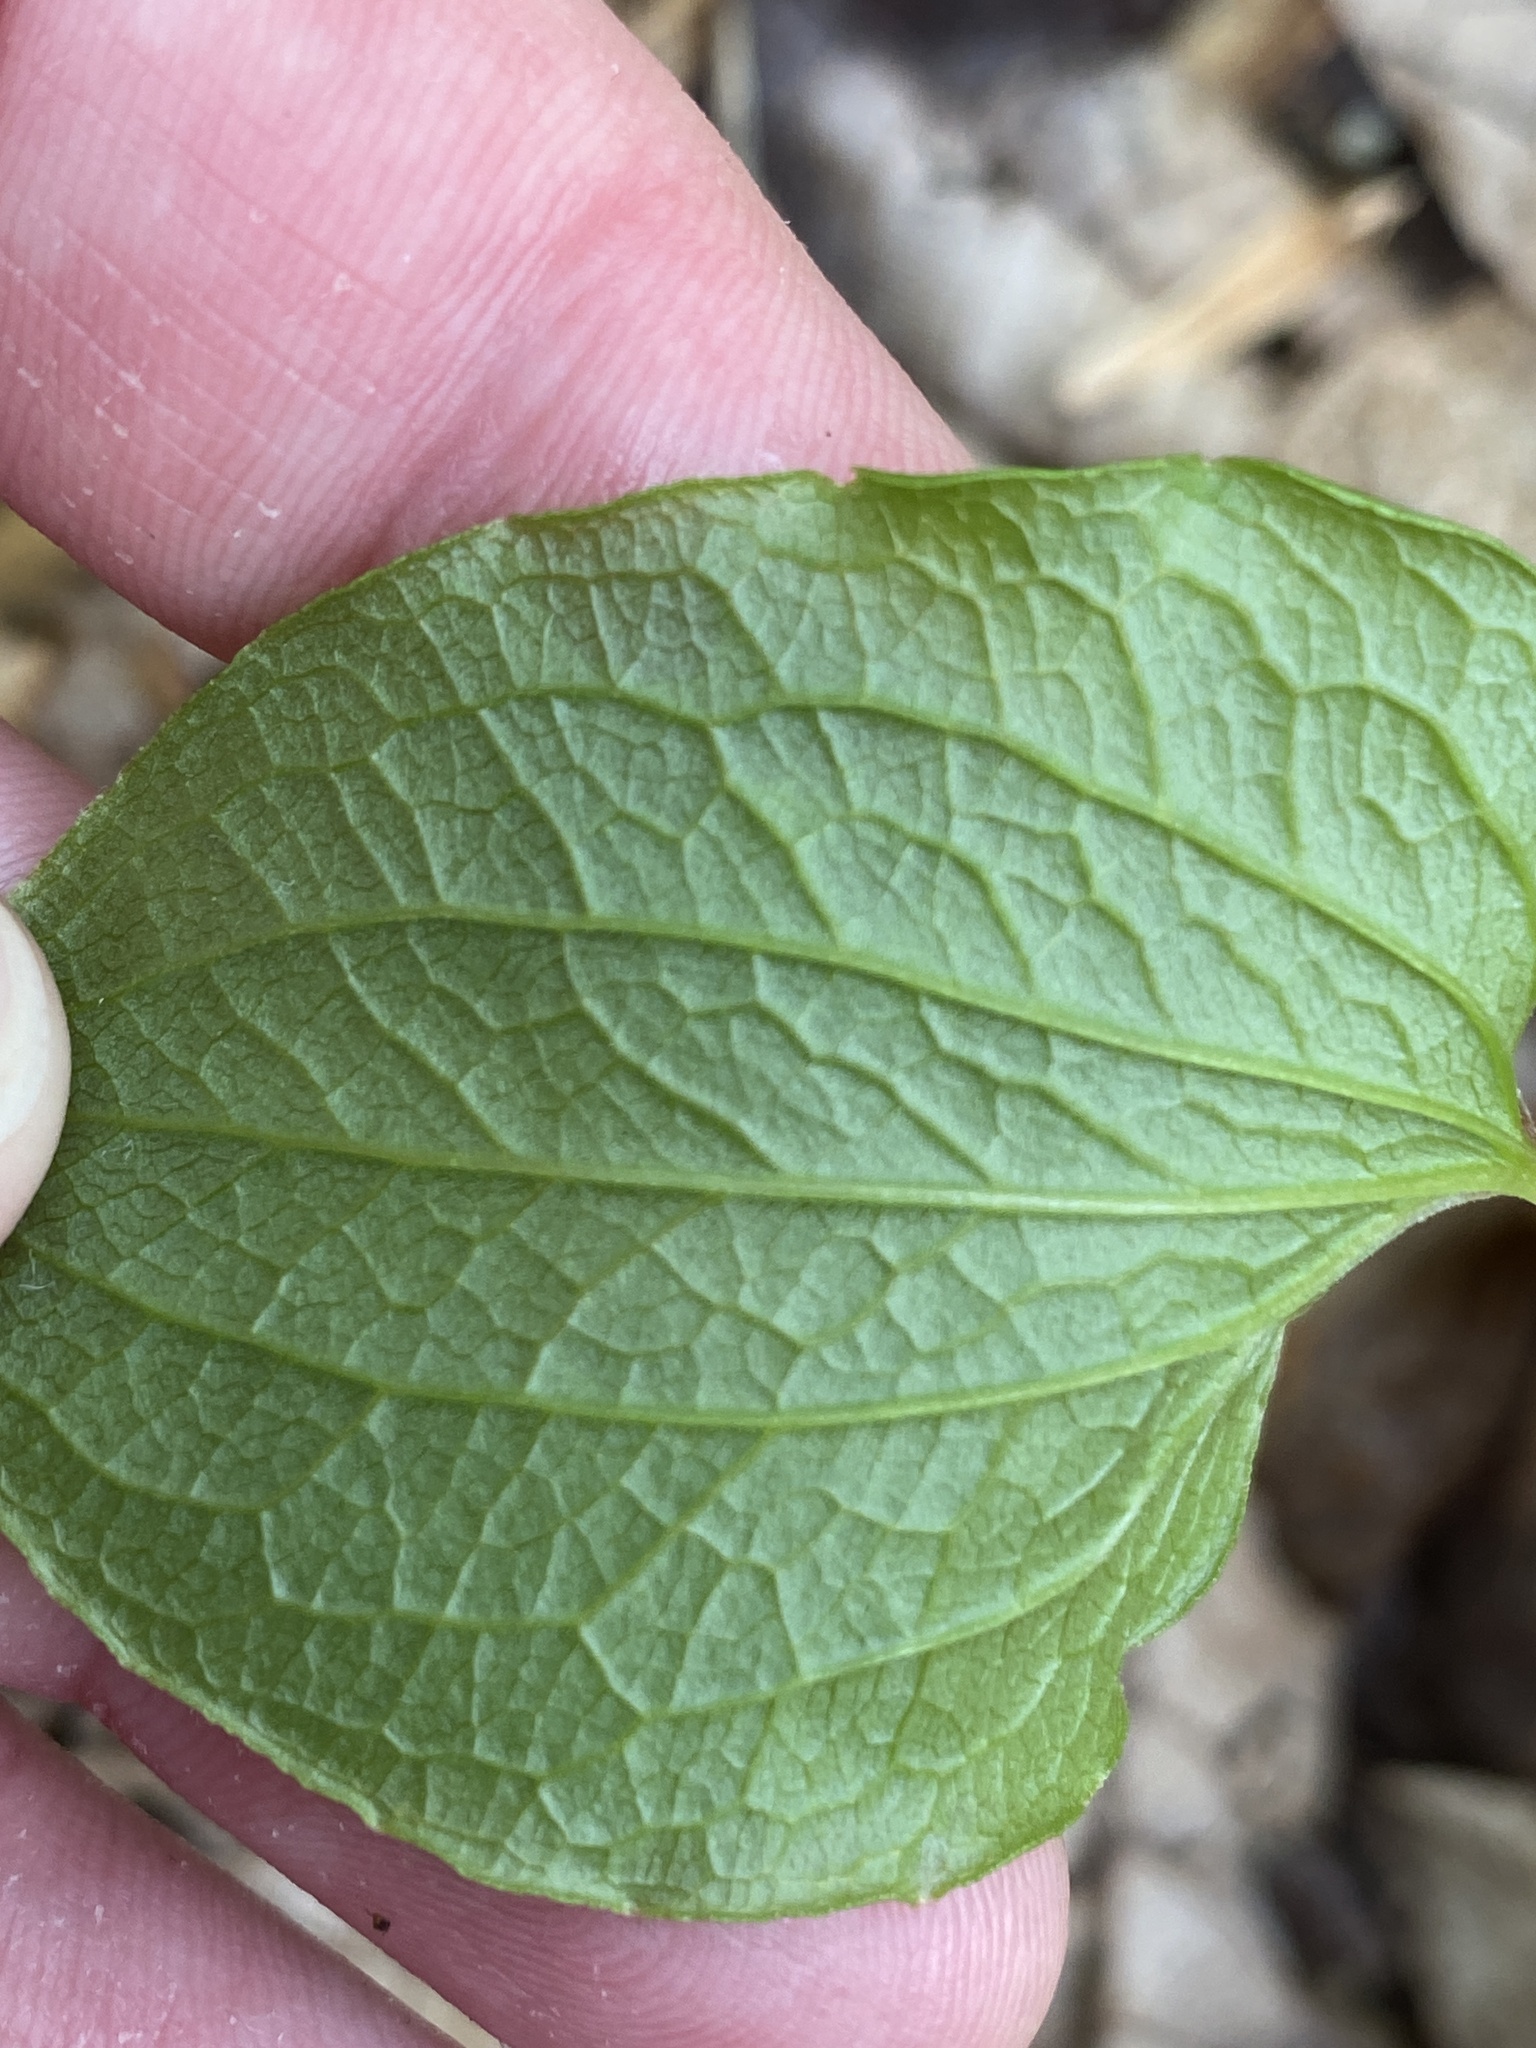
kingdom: Plantae
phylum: Tracheophyta
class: Liliopsida
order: Liliales
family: Smilacaceae
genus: Smilax
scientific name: Smilax pulverulenta
